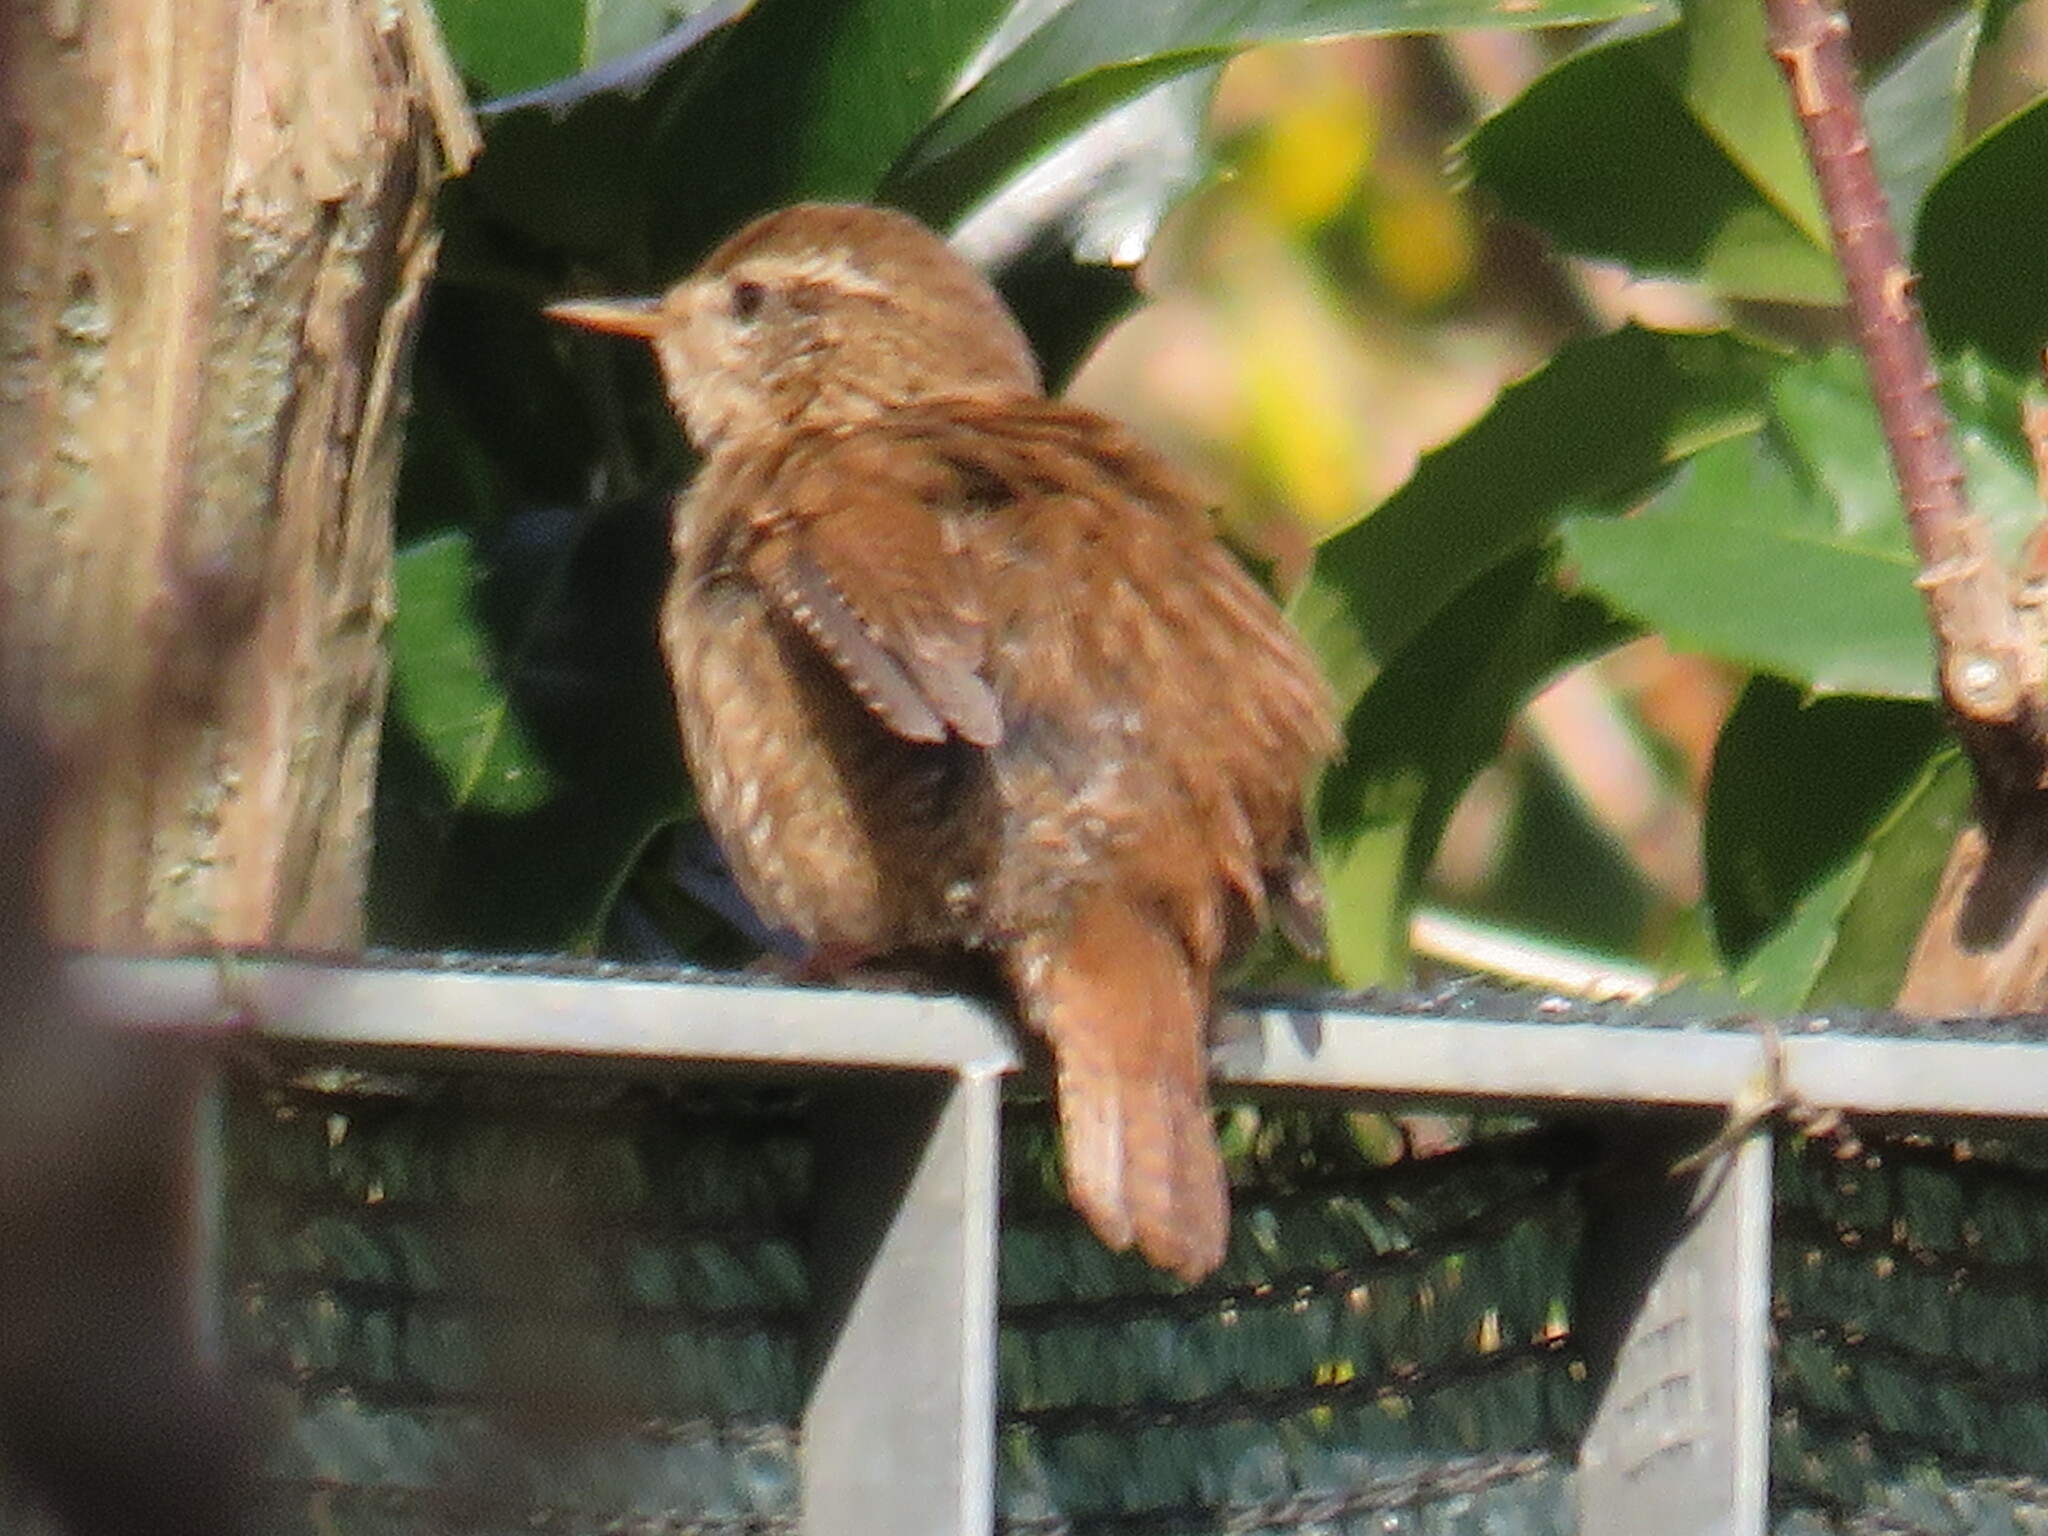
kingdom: Animalia
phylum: Chordata
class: Aves
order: Passeriformes
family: Troglodytidae
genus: Troglodytes
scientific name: Troglodytes troglodytes
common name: Eurasian wren
